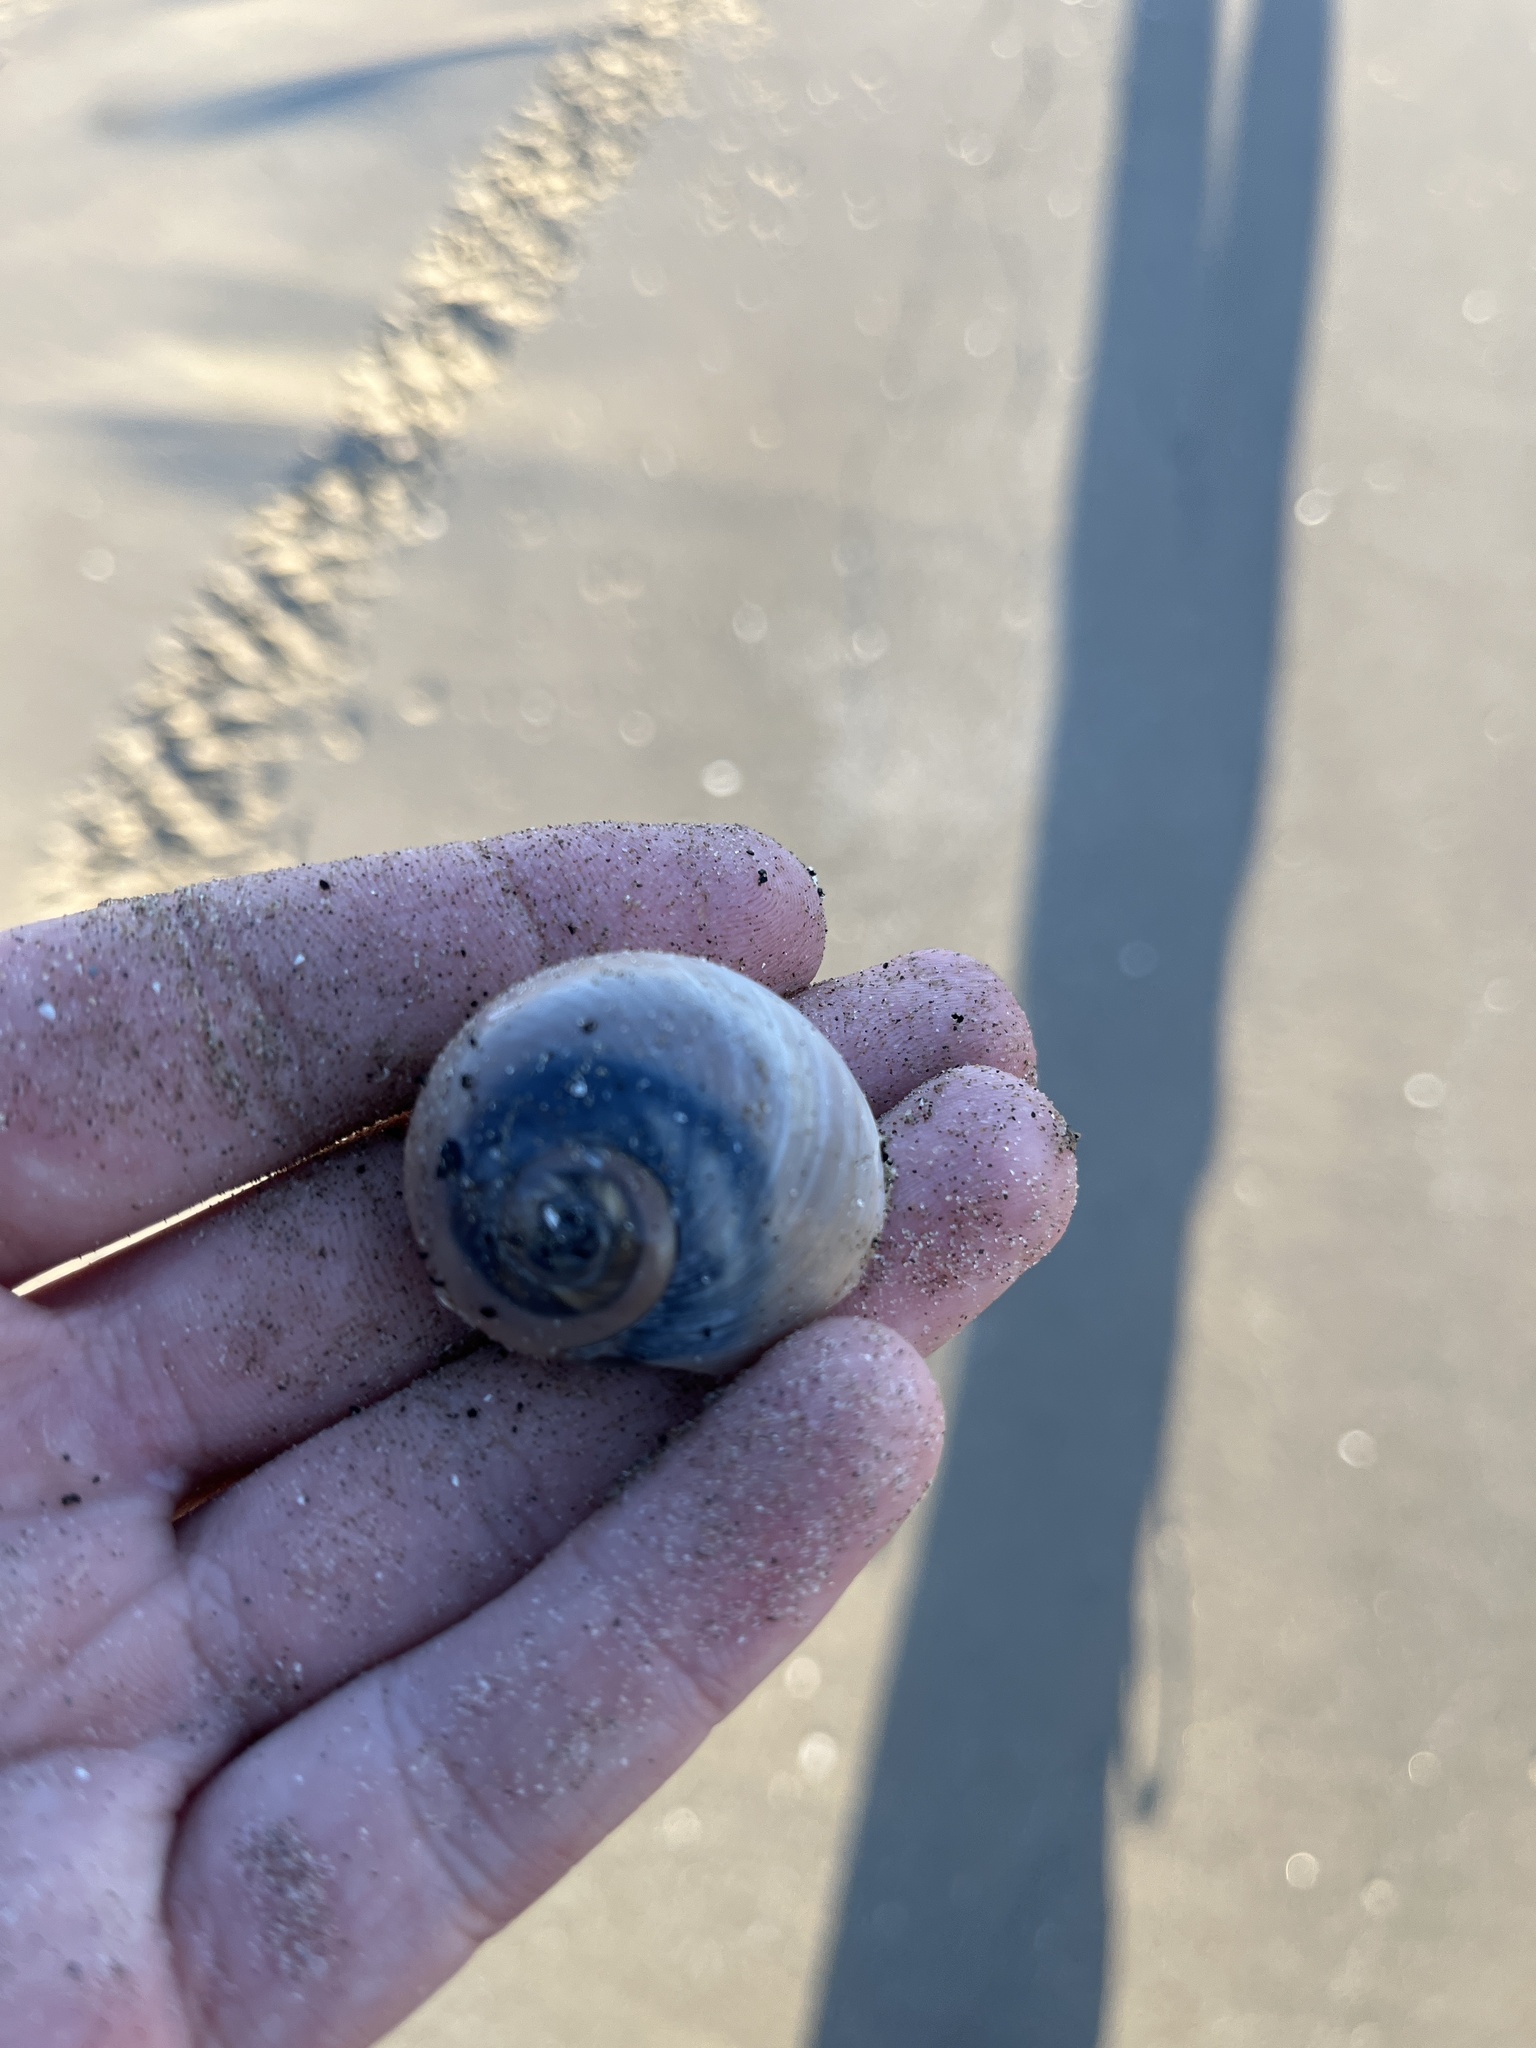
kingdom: Animalia
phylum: Mollusca
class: Gastropoda
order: Littorinimorpha
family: Naticidae
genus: Neverita
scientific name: Neverita duplicata
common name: Lobed moonsnail
